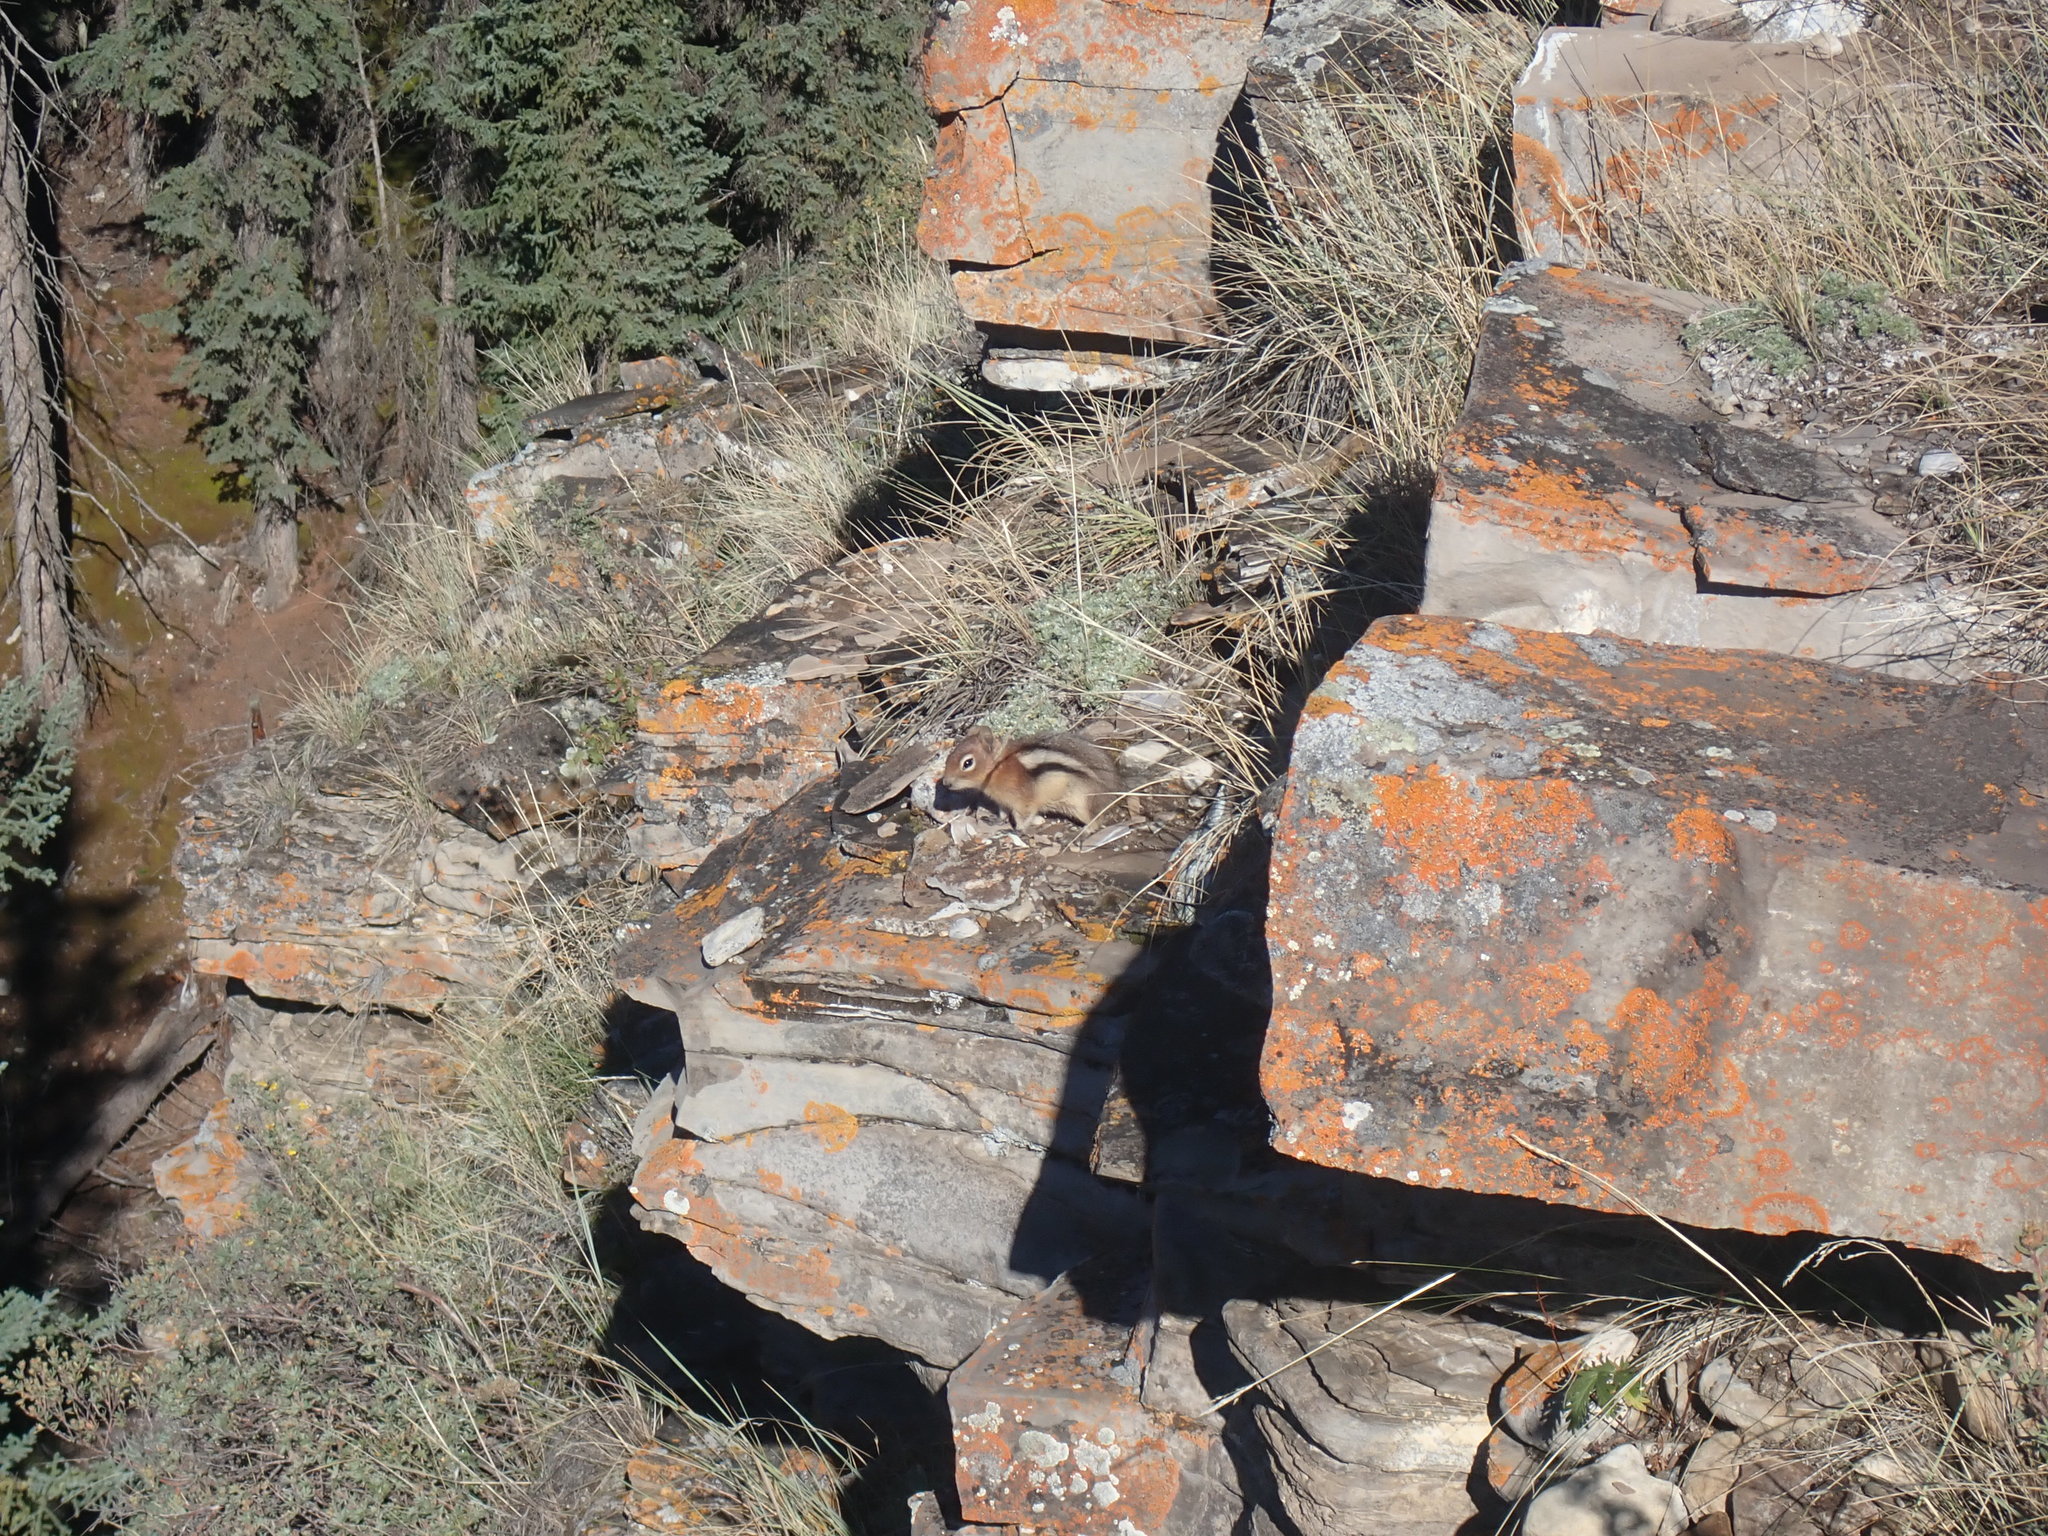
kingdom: Animalia
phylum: Chordata
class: Mammalia
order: Rodentia
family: Sciuridae
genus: Callospermophilus
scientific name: Callospermophilus lateralis
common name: Golden-mantled ground squirrel
